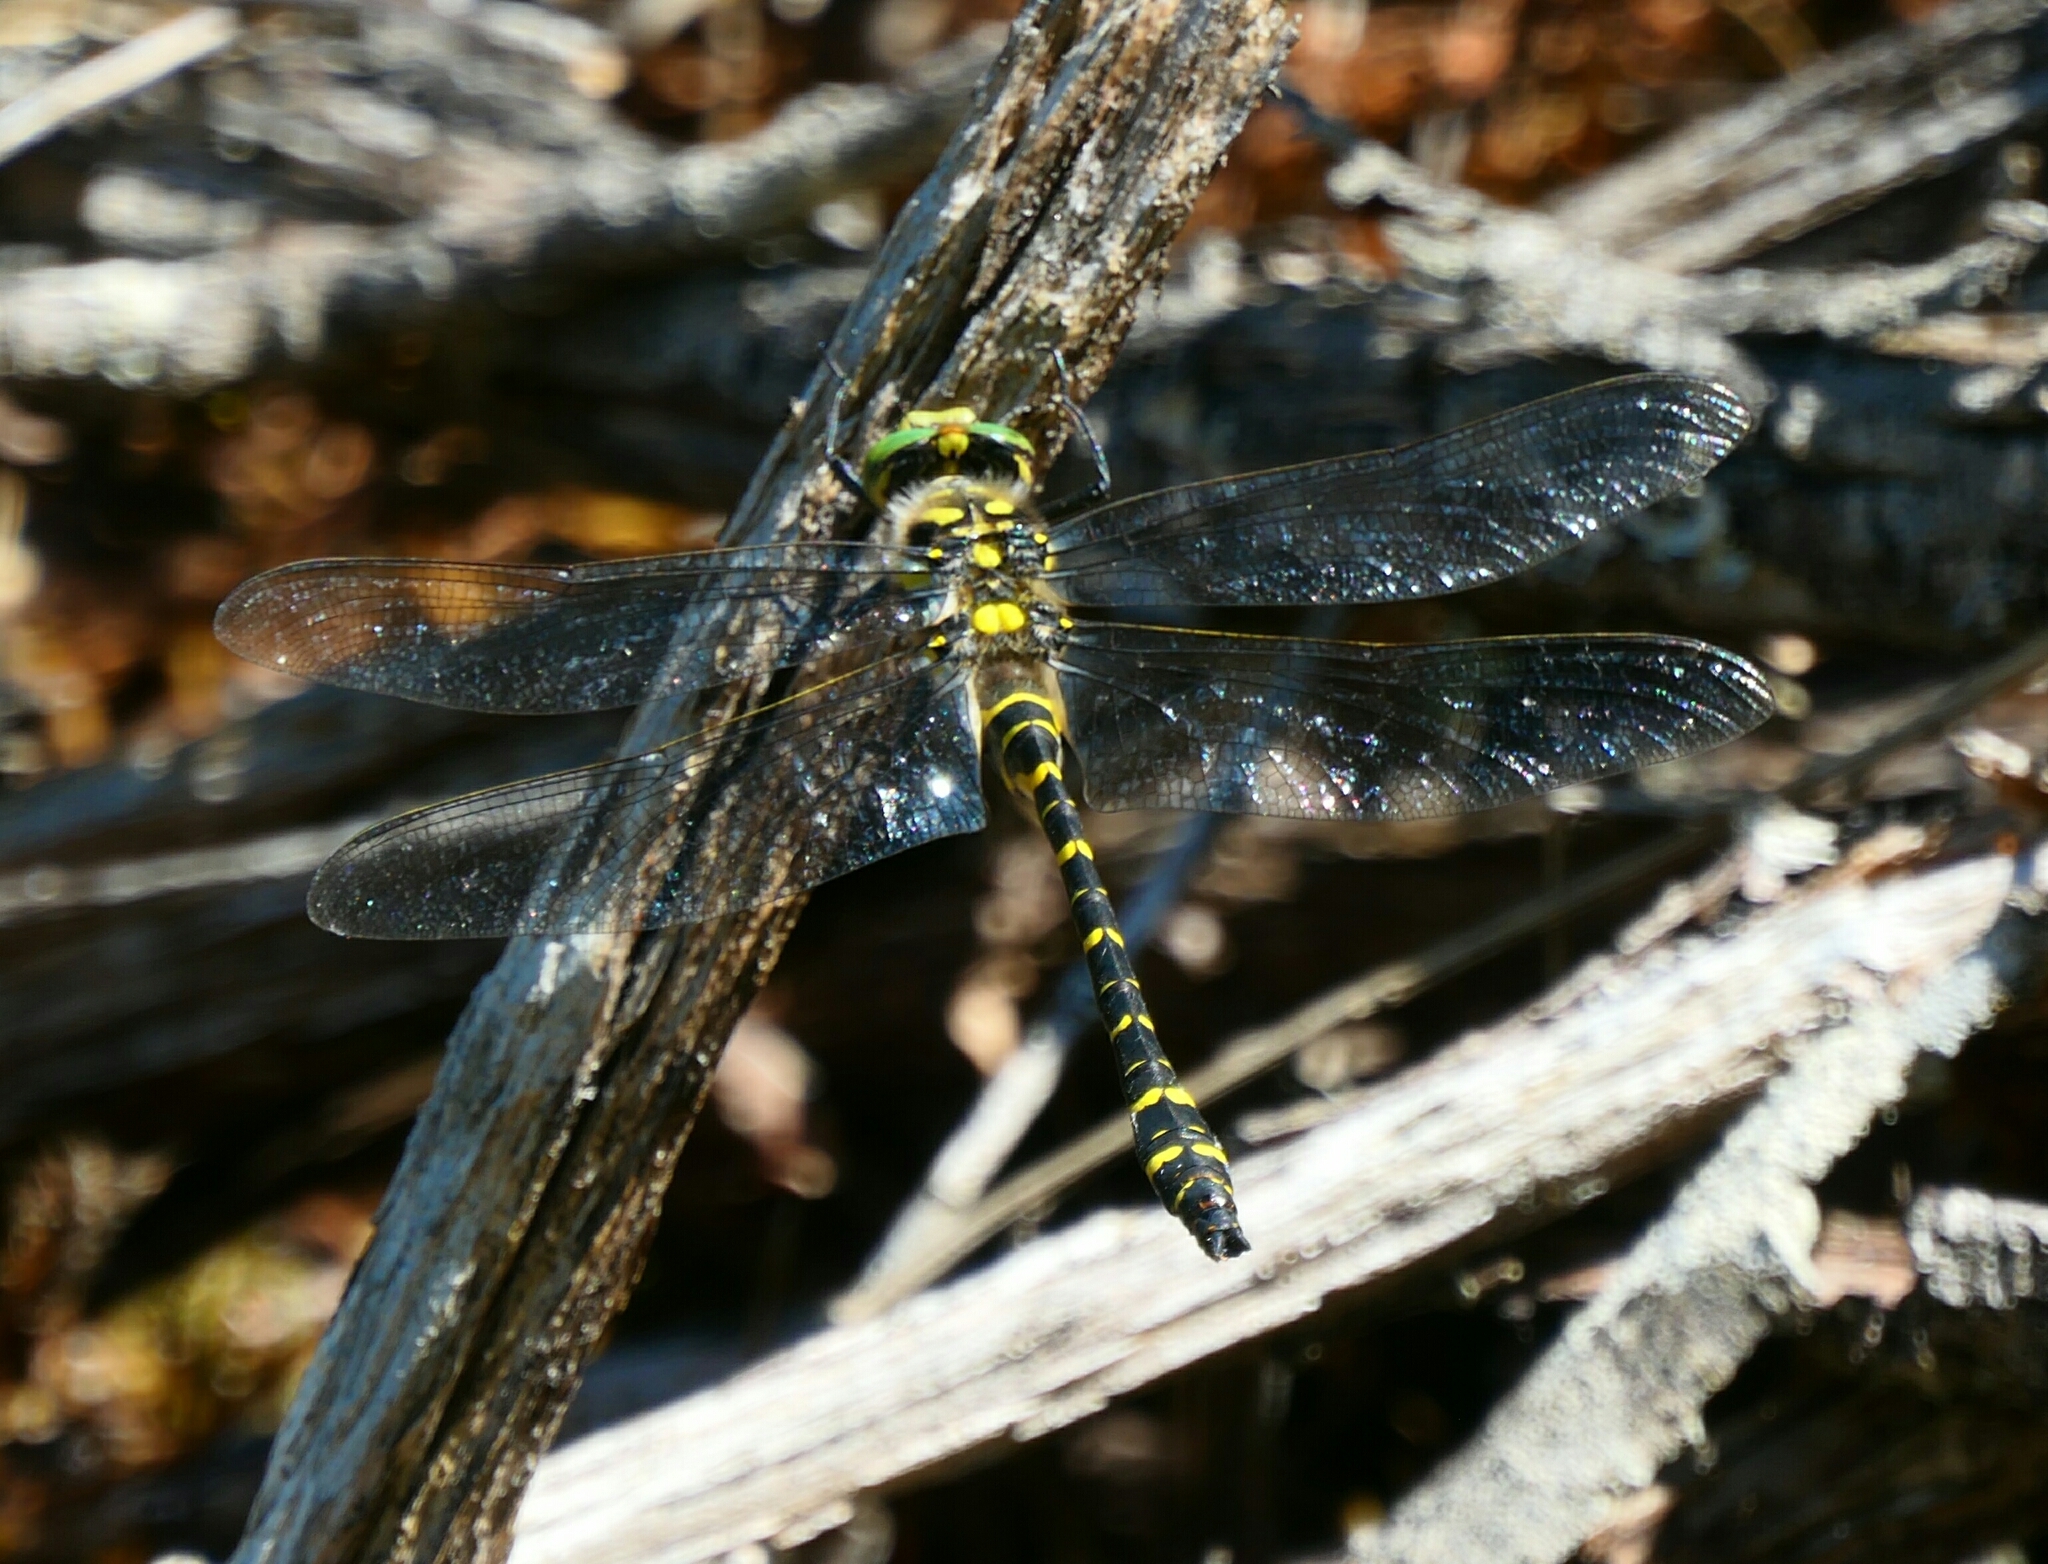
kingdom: Animalia
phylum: Arthropoda
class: Insecta
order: Odonata
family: Cordulegastridae
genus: Cordulegaster
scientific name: Cordulegaster boltonii
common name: Golden-ringed dragonfly
